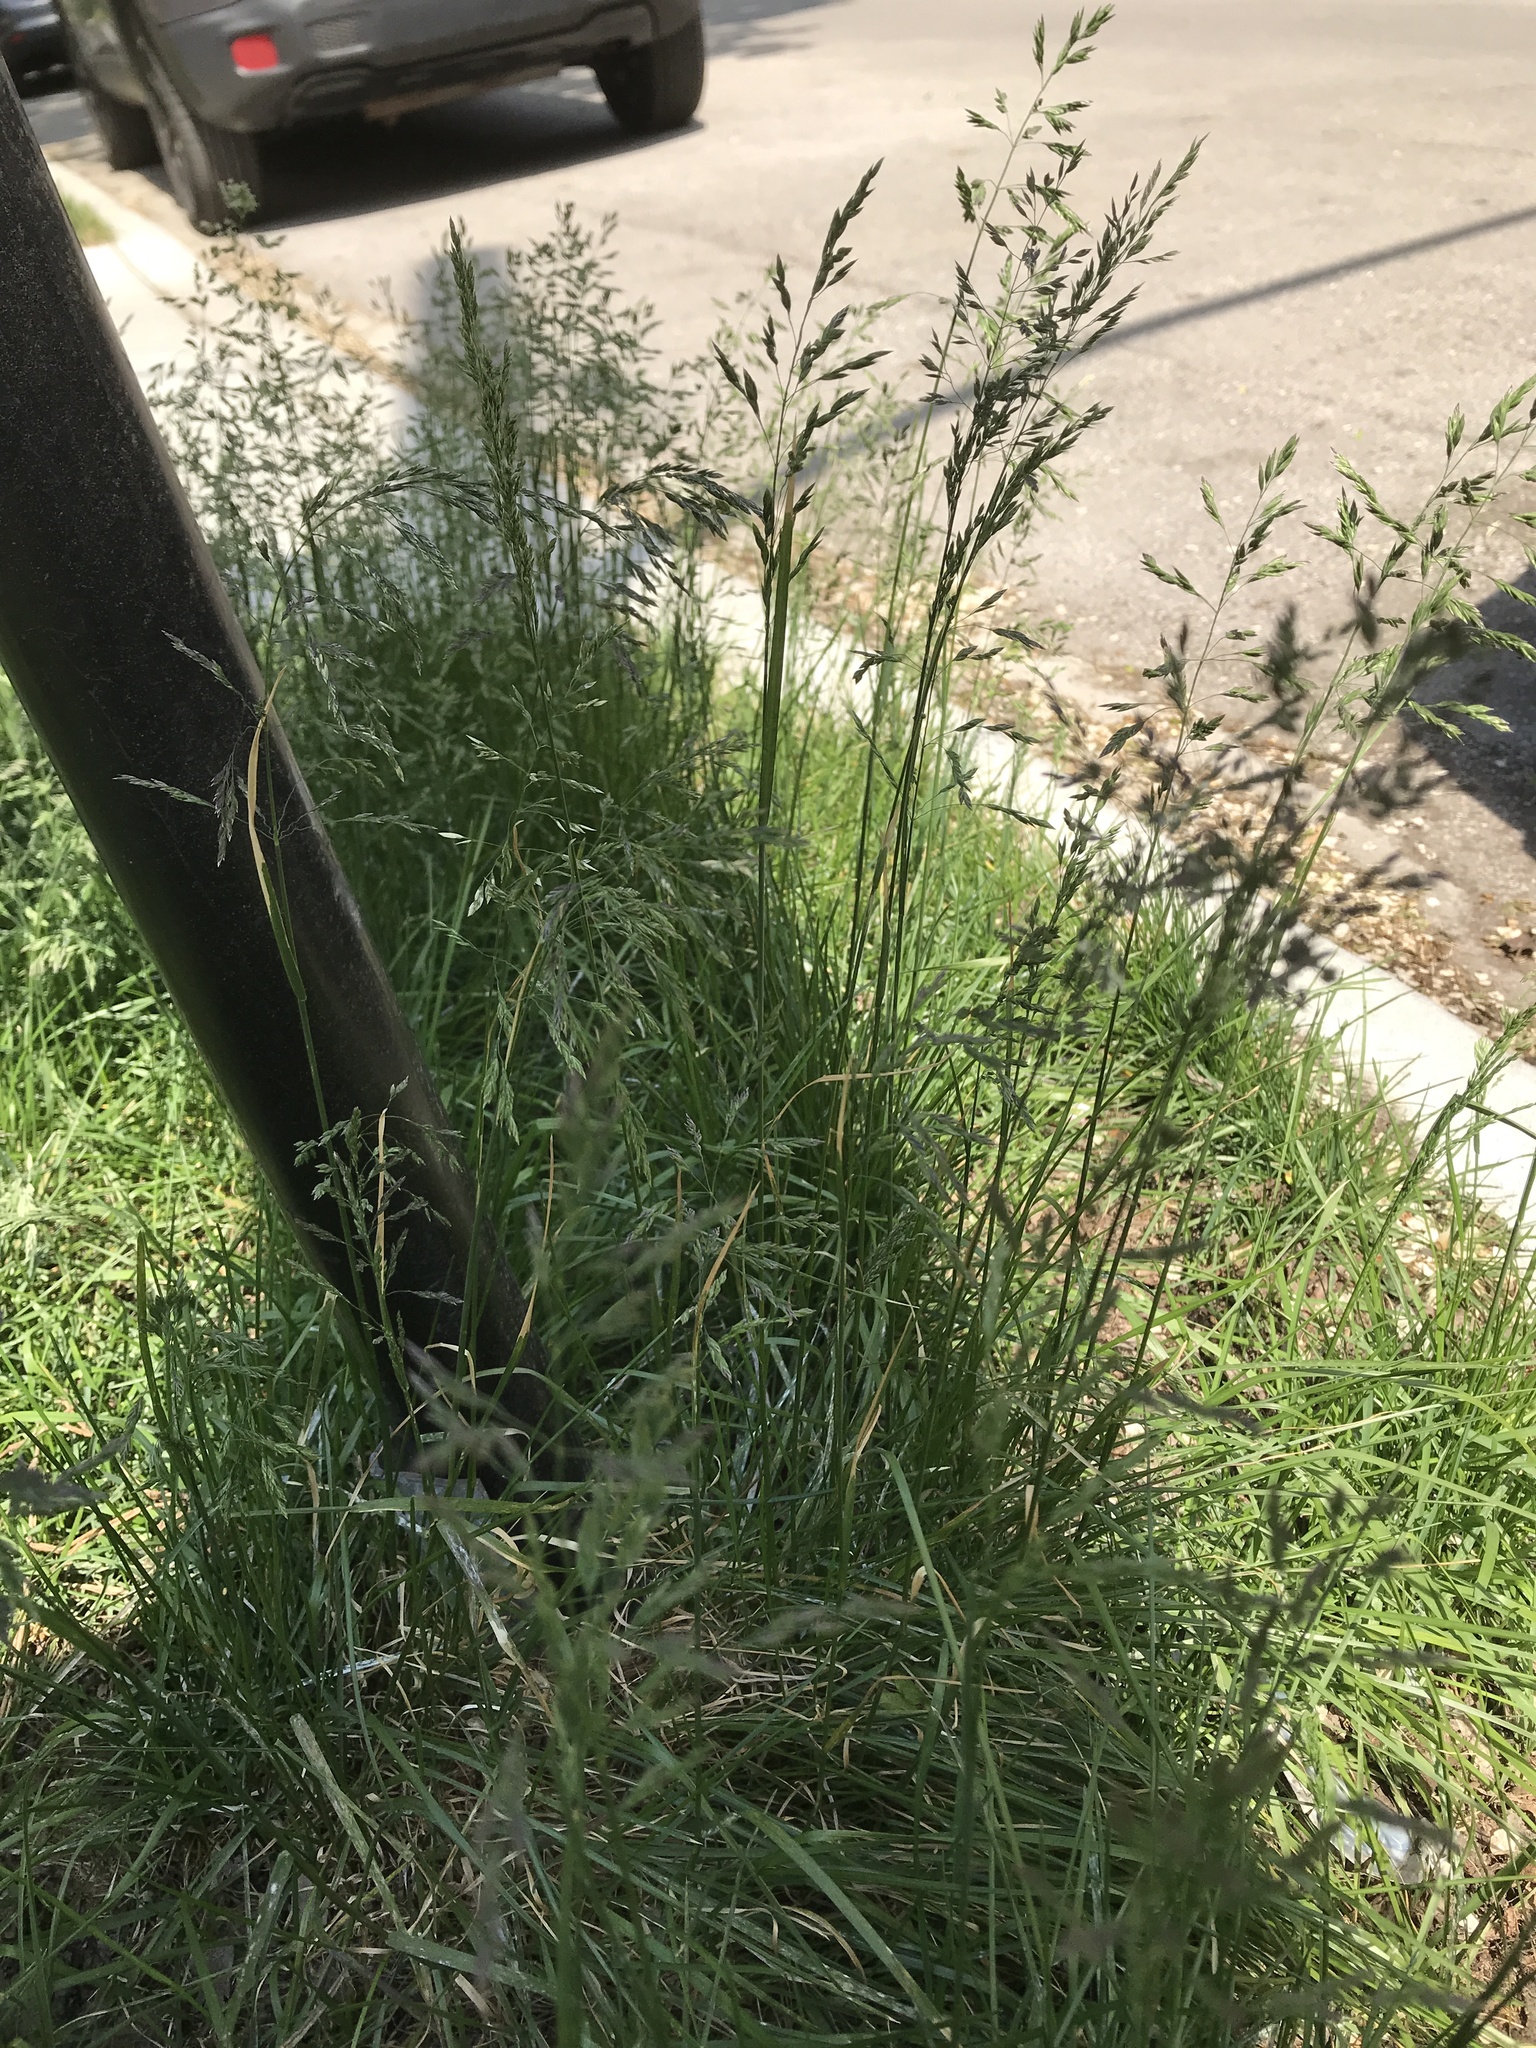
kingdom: Plantae
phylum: Tracheophyta
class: Liliopsida
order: Poales
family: Poaceae
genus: Poa
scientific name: Poa pratensis
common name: Kentucky bluegrass
